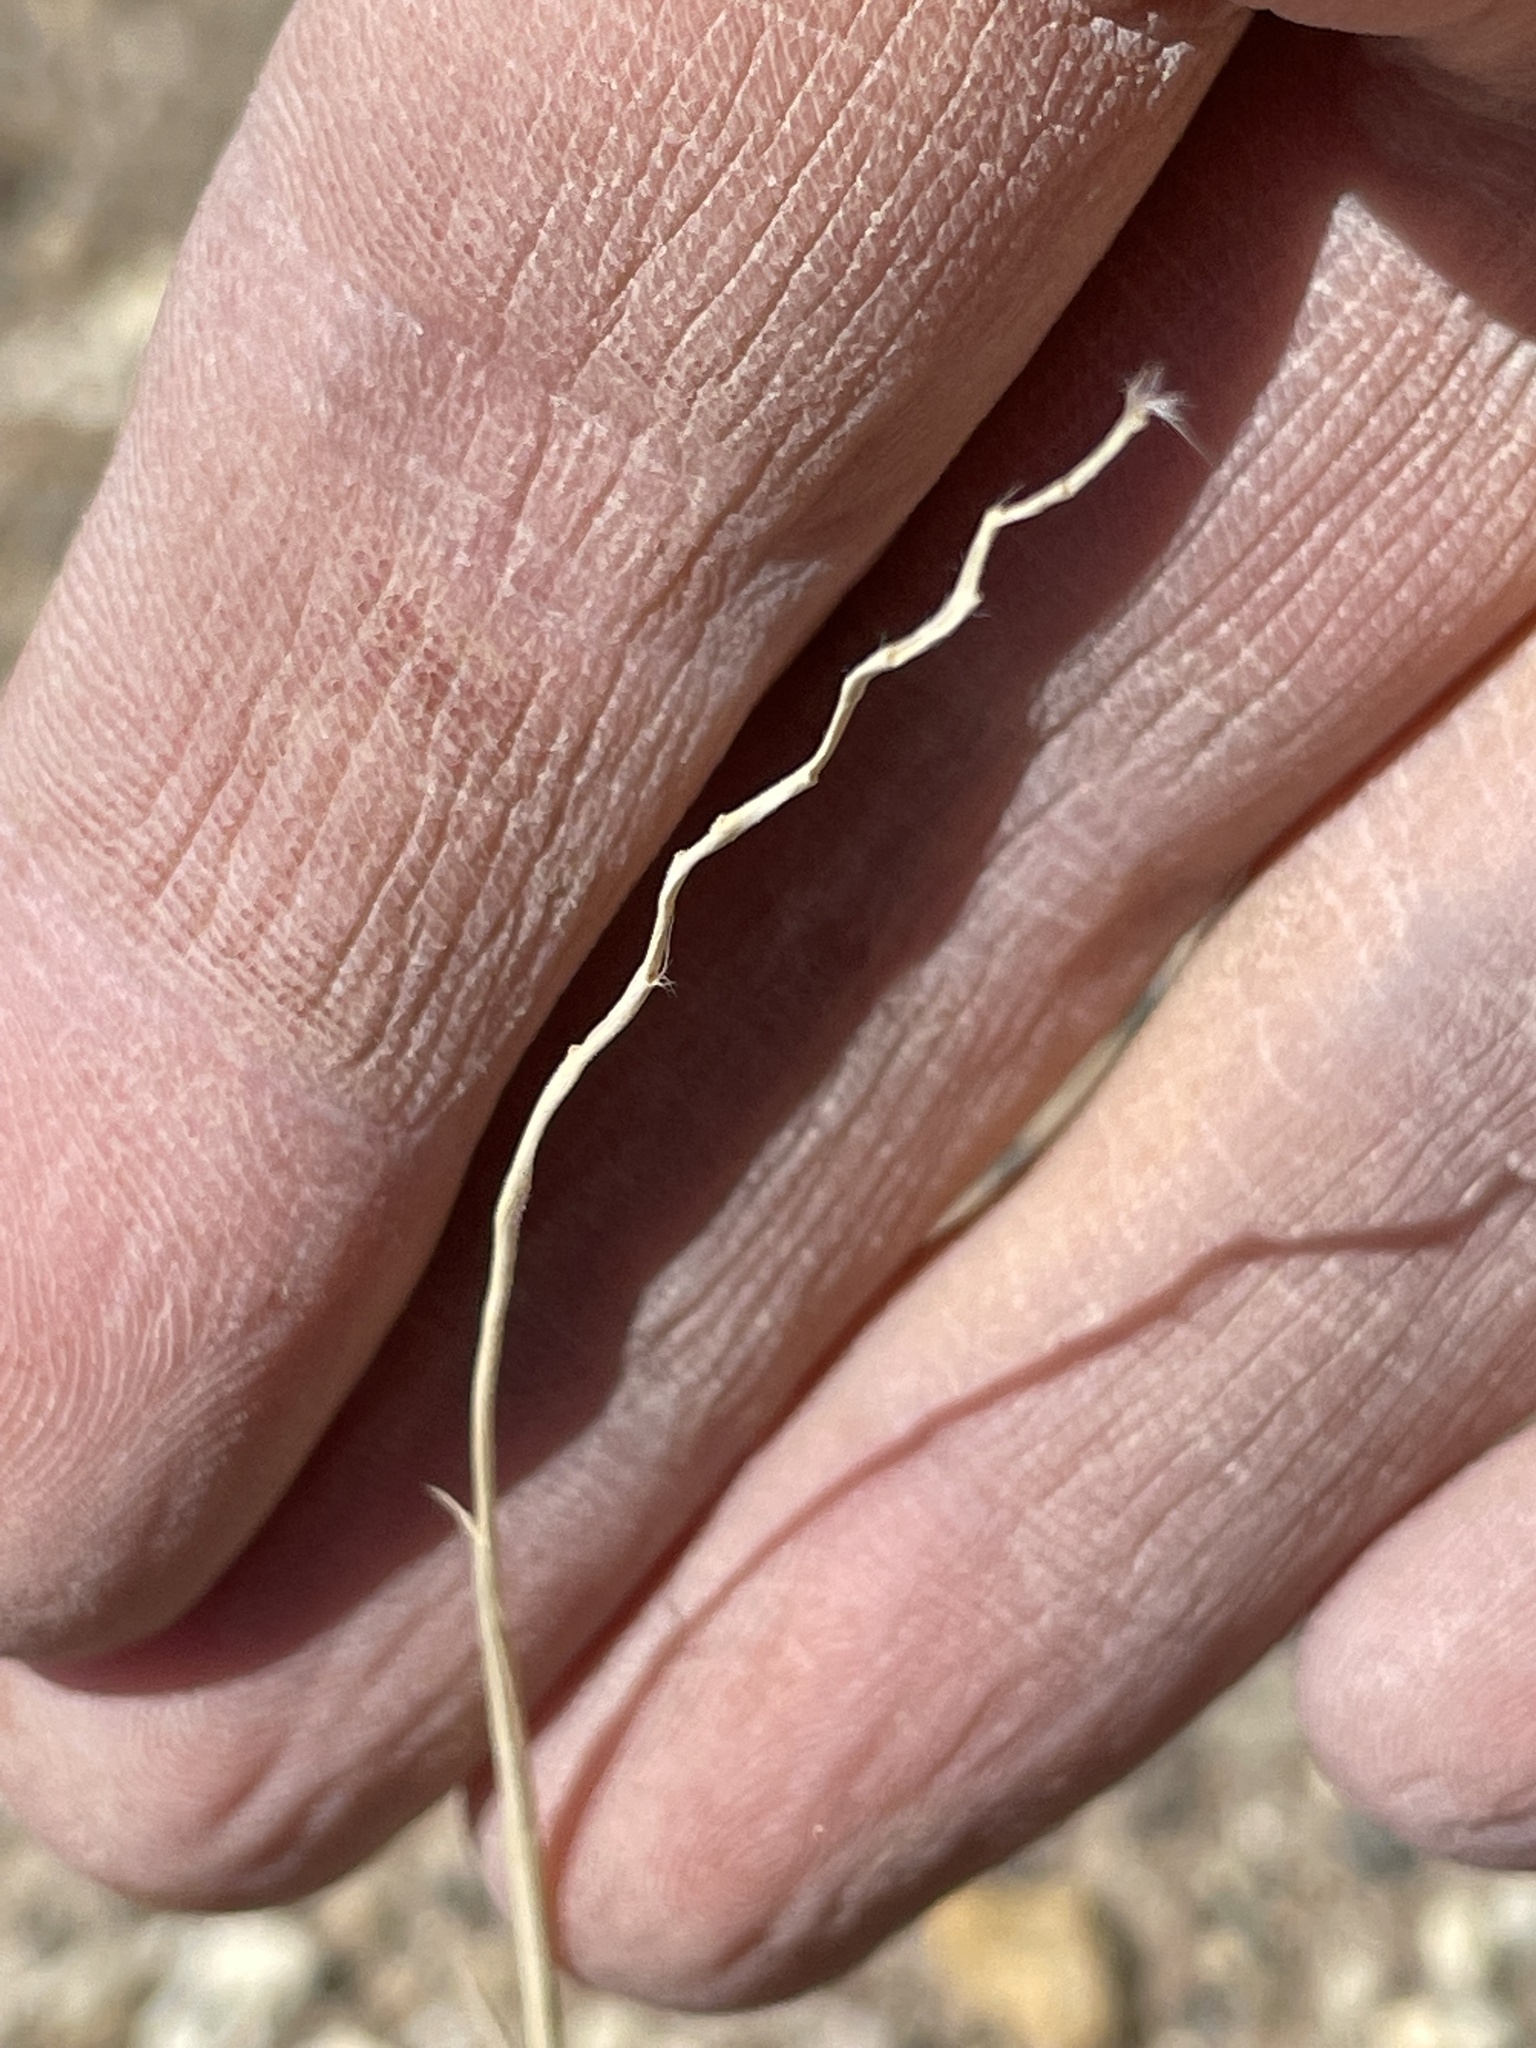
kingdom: Plantae
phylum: Tracheophyta
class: Liliopsida
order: Poales
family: Poaceae
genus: Hilaria
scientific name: Hilaria jamesii
